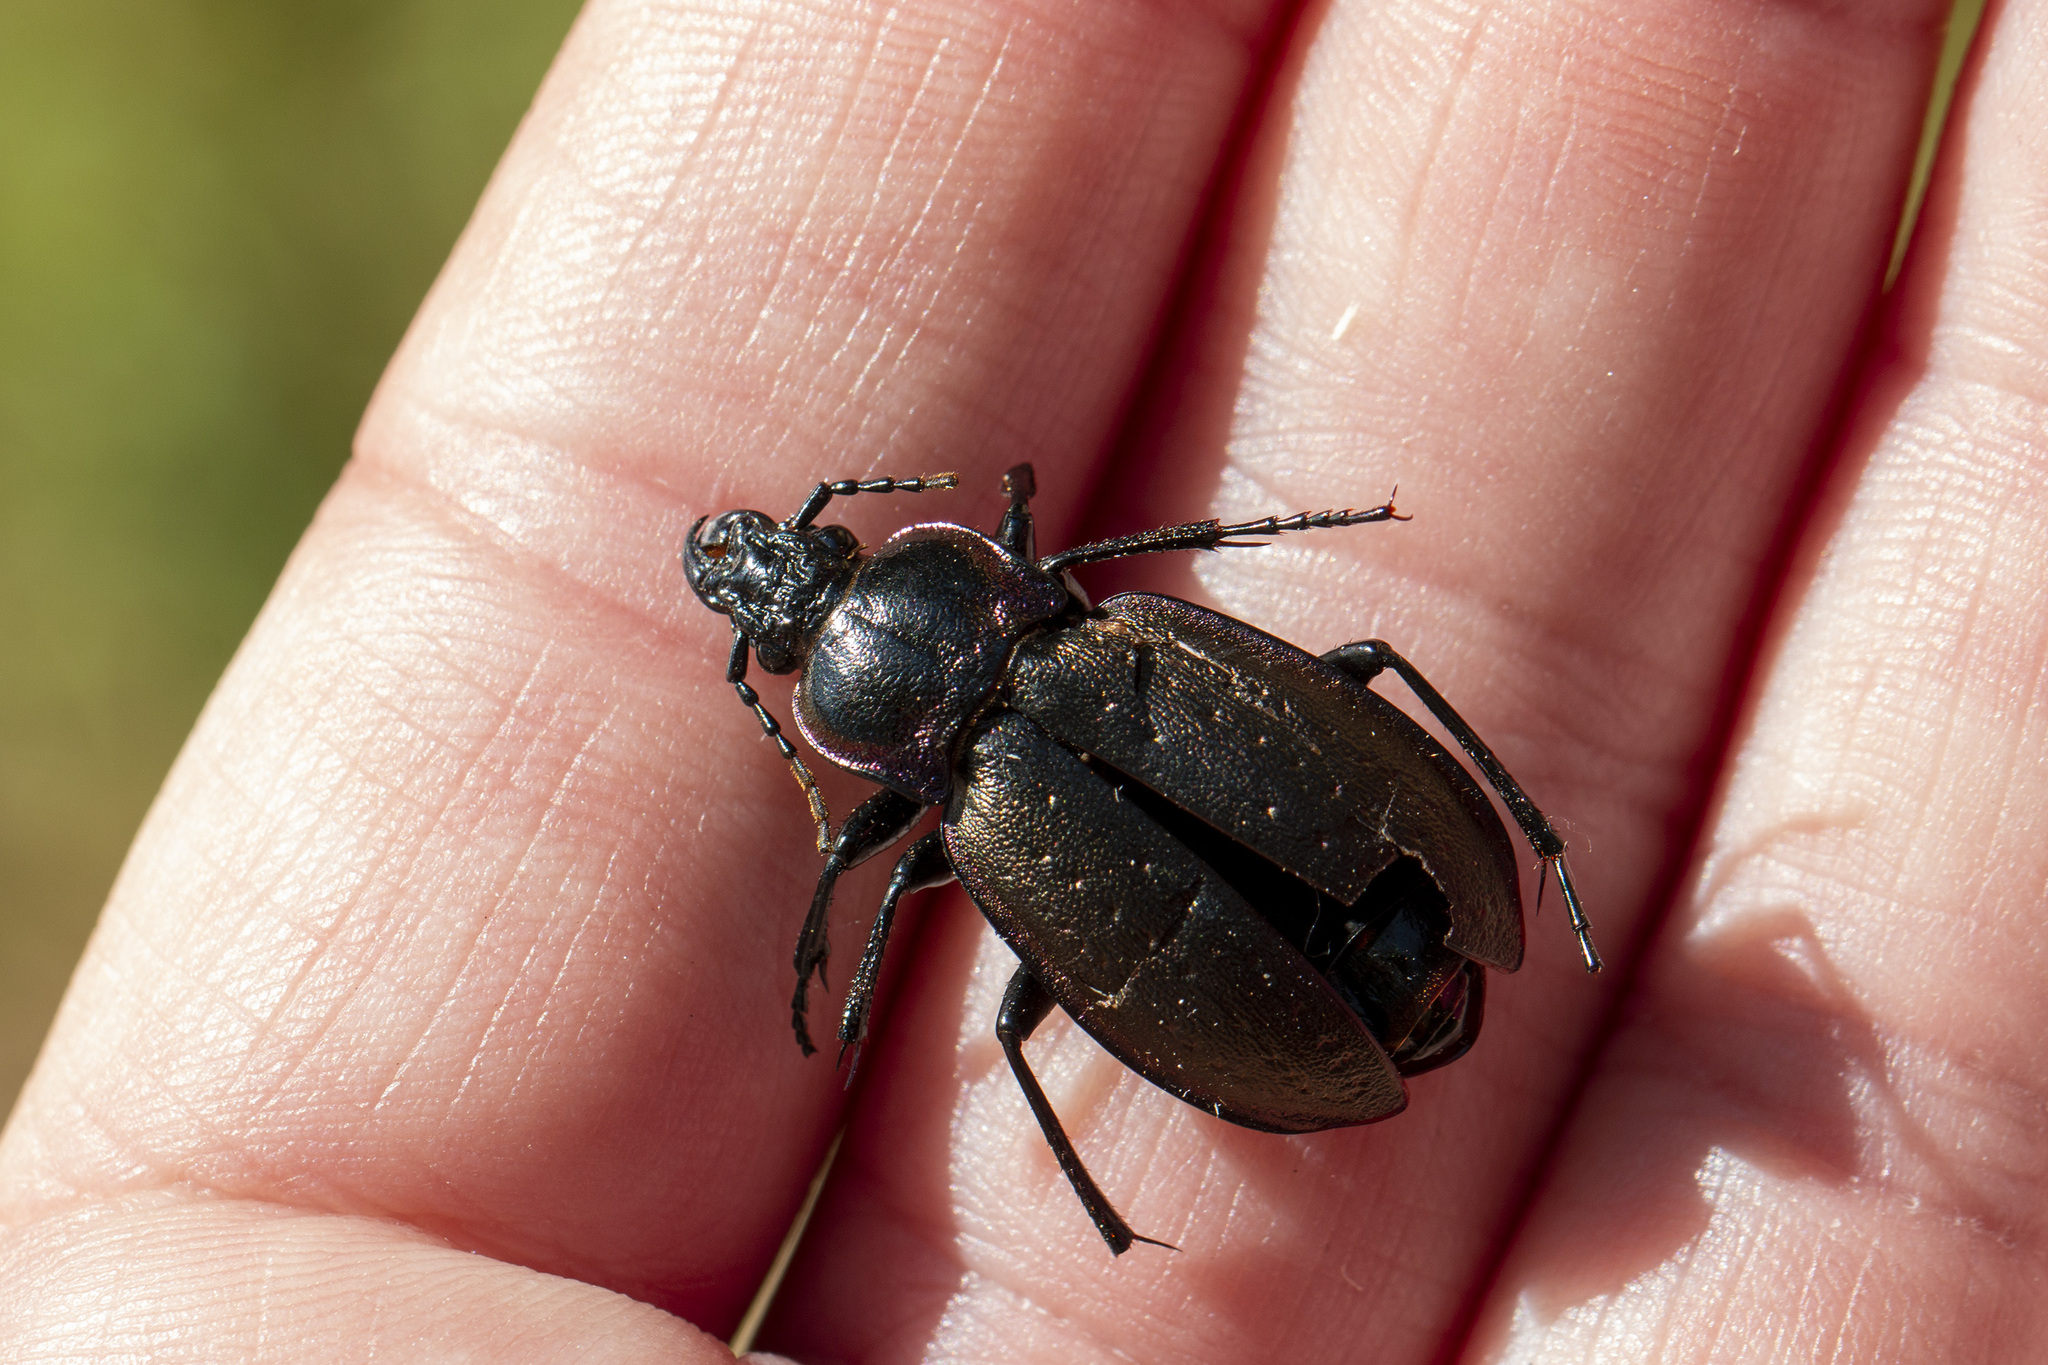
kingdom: Animalia
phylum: Arthropoda
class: Insecta
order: Coleoptera
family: Carabidae
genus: Carabus
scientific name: Carabus nemoralis
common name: European ground beetle
